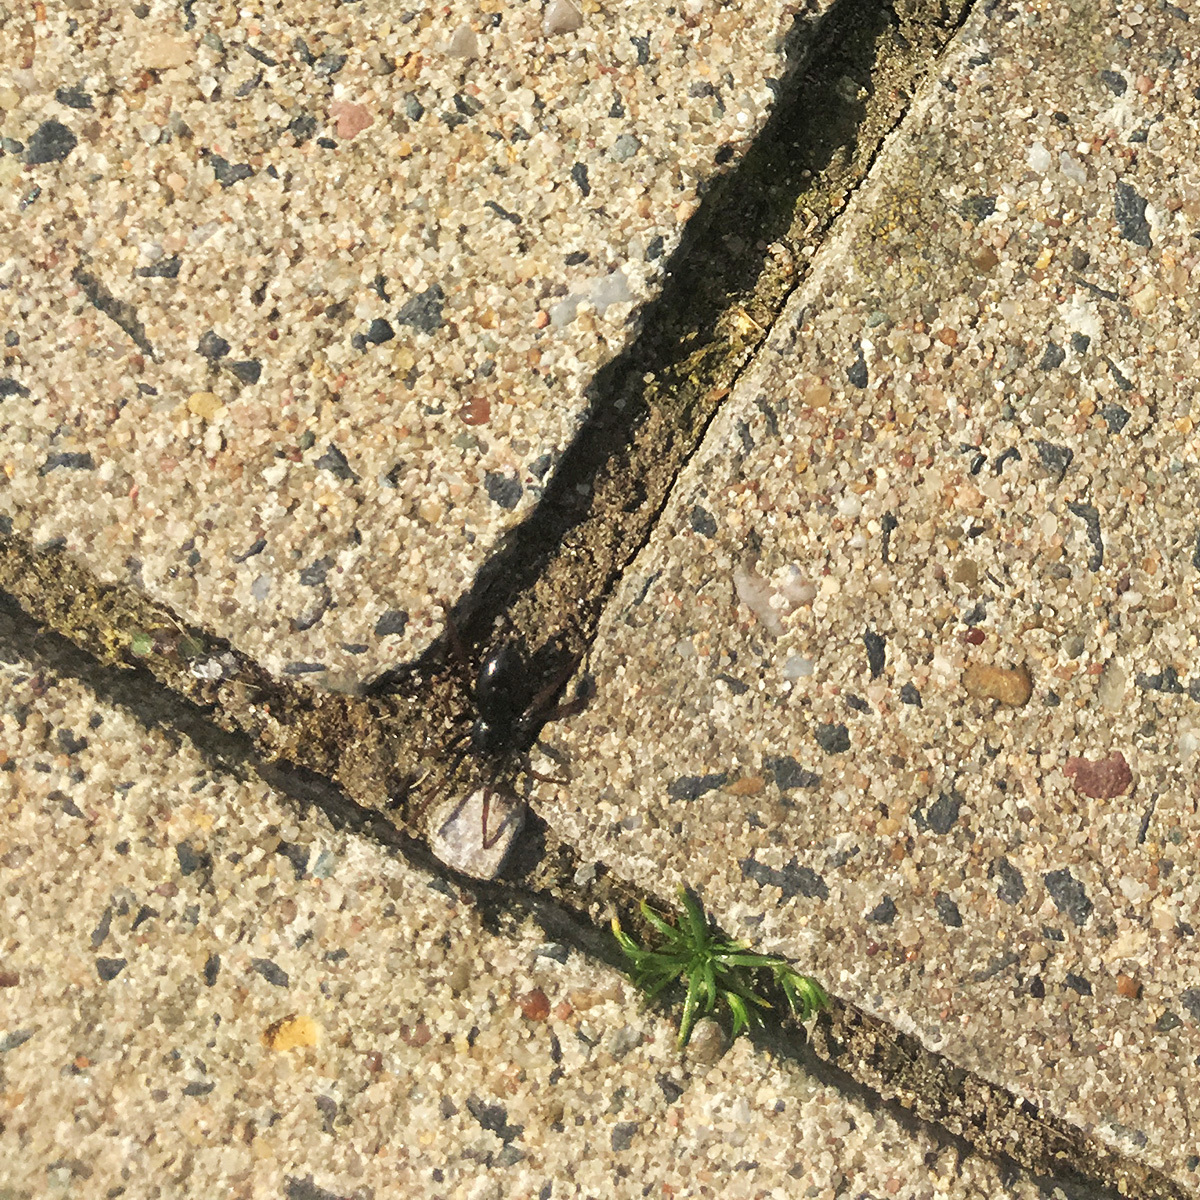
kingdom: Animalia
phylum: Arthropoda
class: Arachnida
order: Araneae
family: Gnaphosidae
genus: Trachyzelotes
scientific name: Trachyzelotes pedestris
